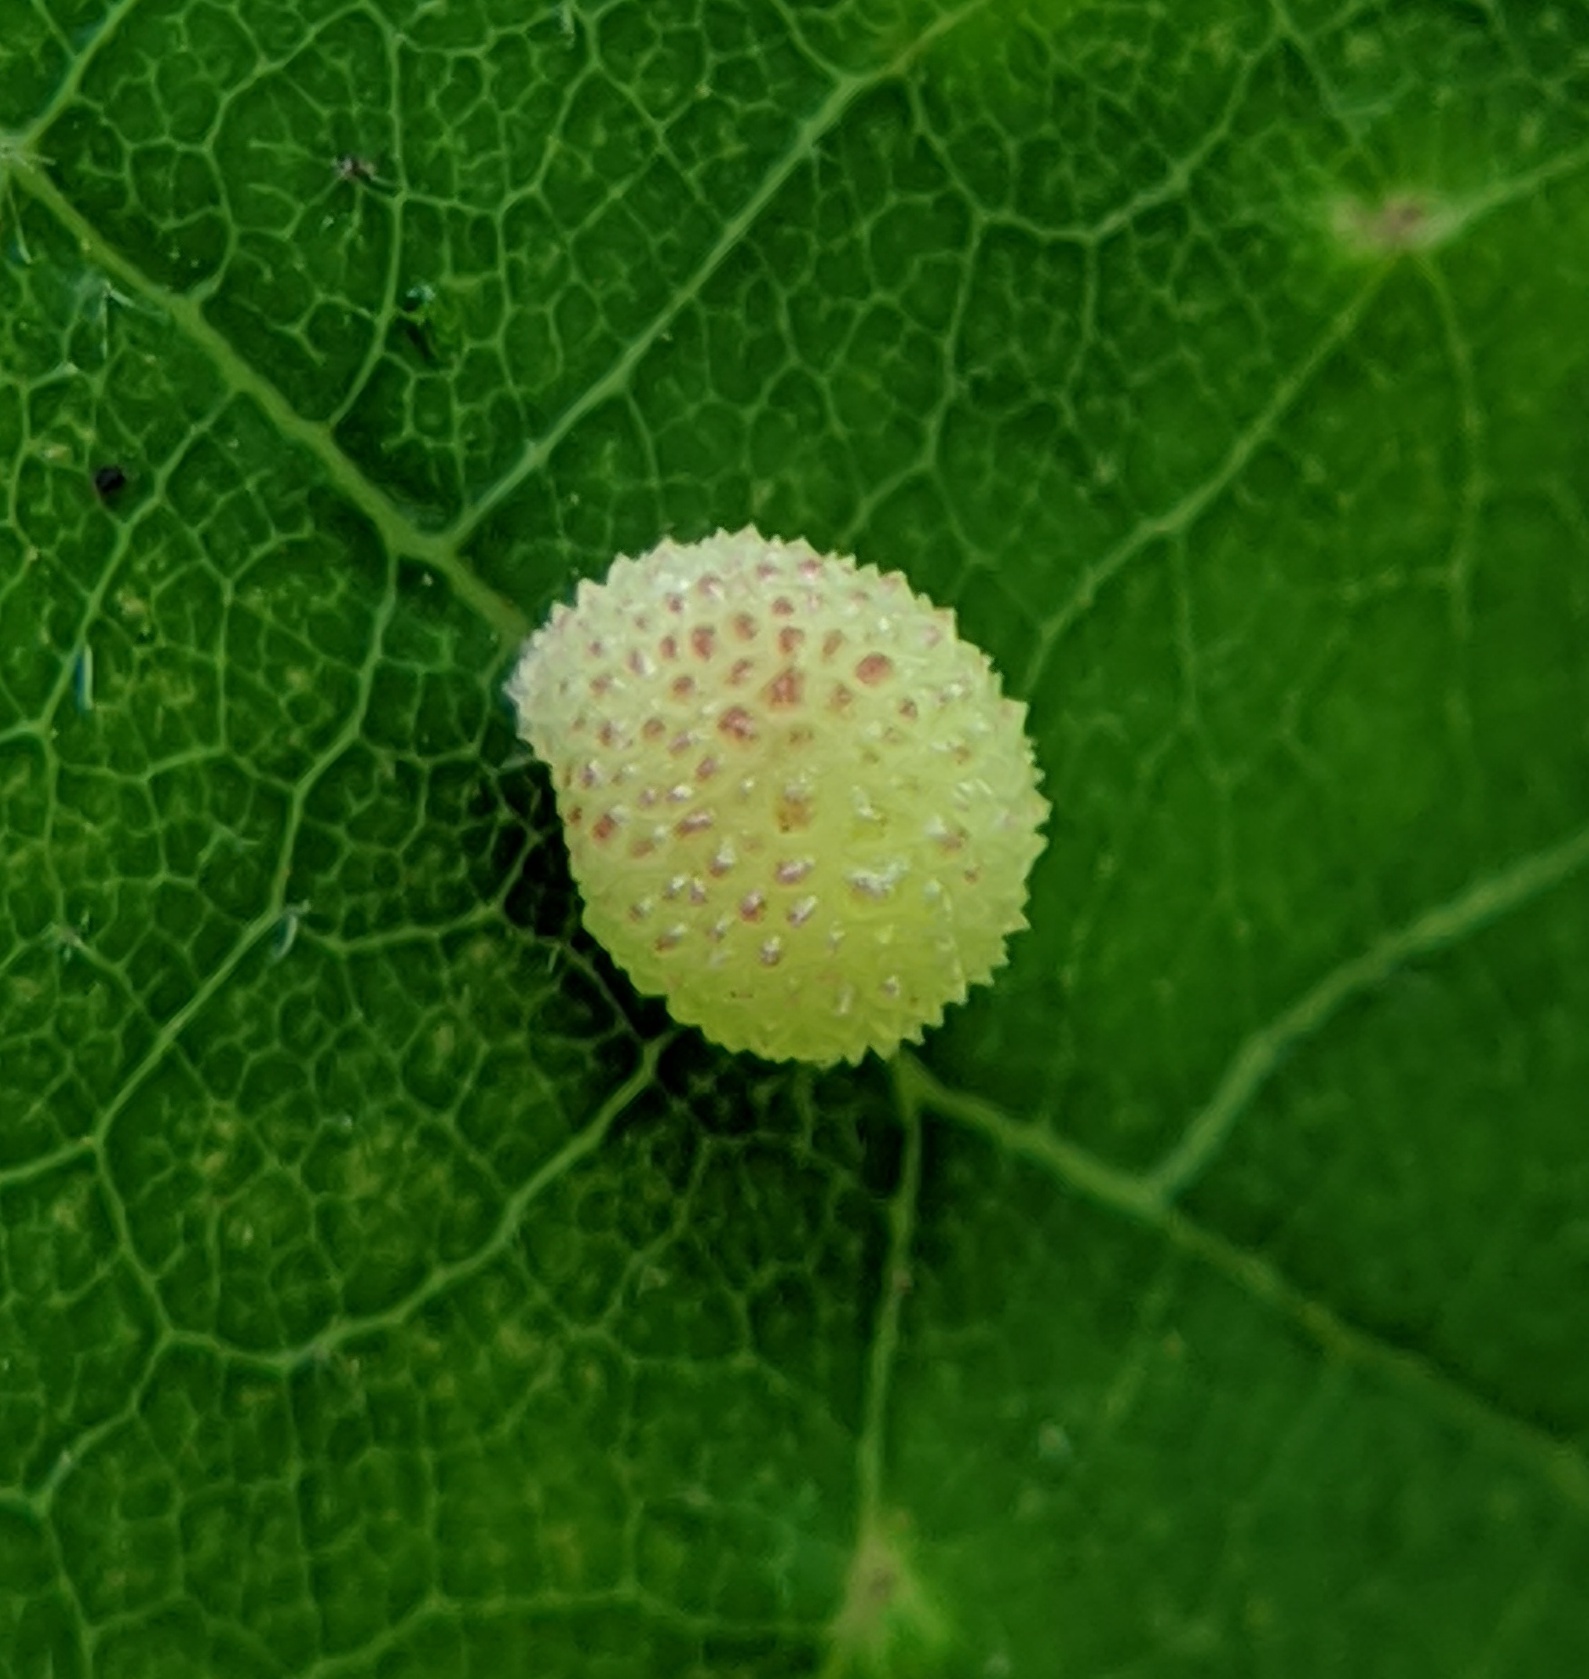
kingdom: Animalia
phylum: Arthropoda
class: Insecta
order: Hymenoptera
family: Cynipidae
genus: Acraspis
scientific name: Acraspis quercushirta
